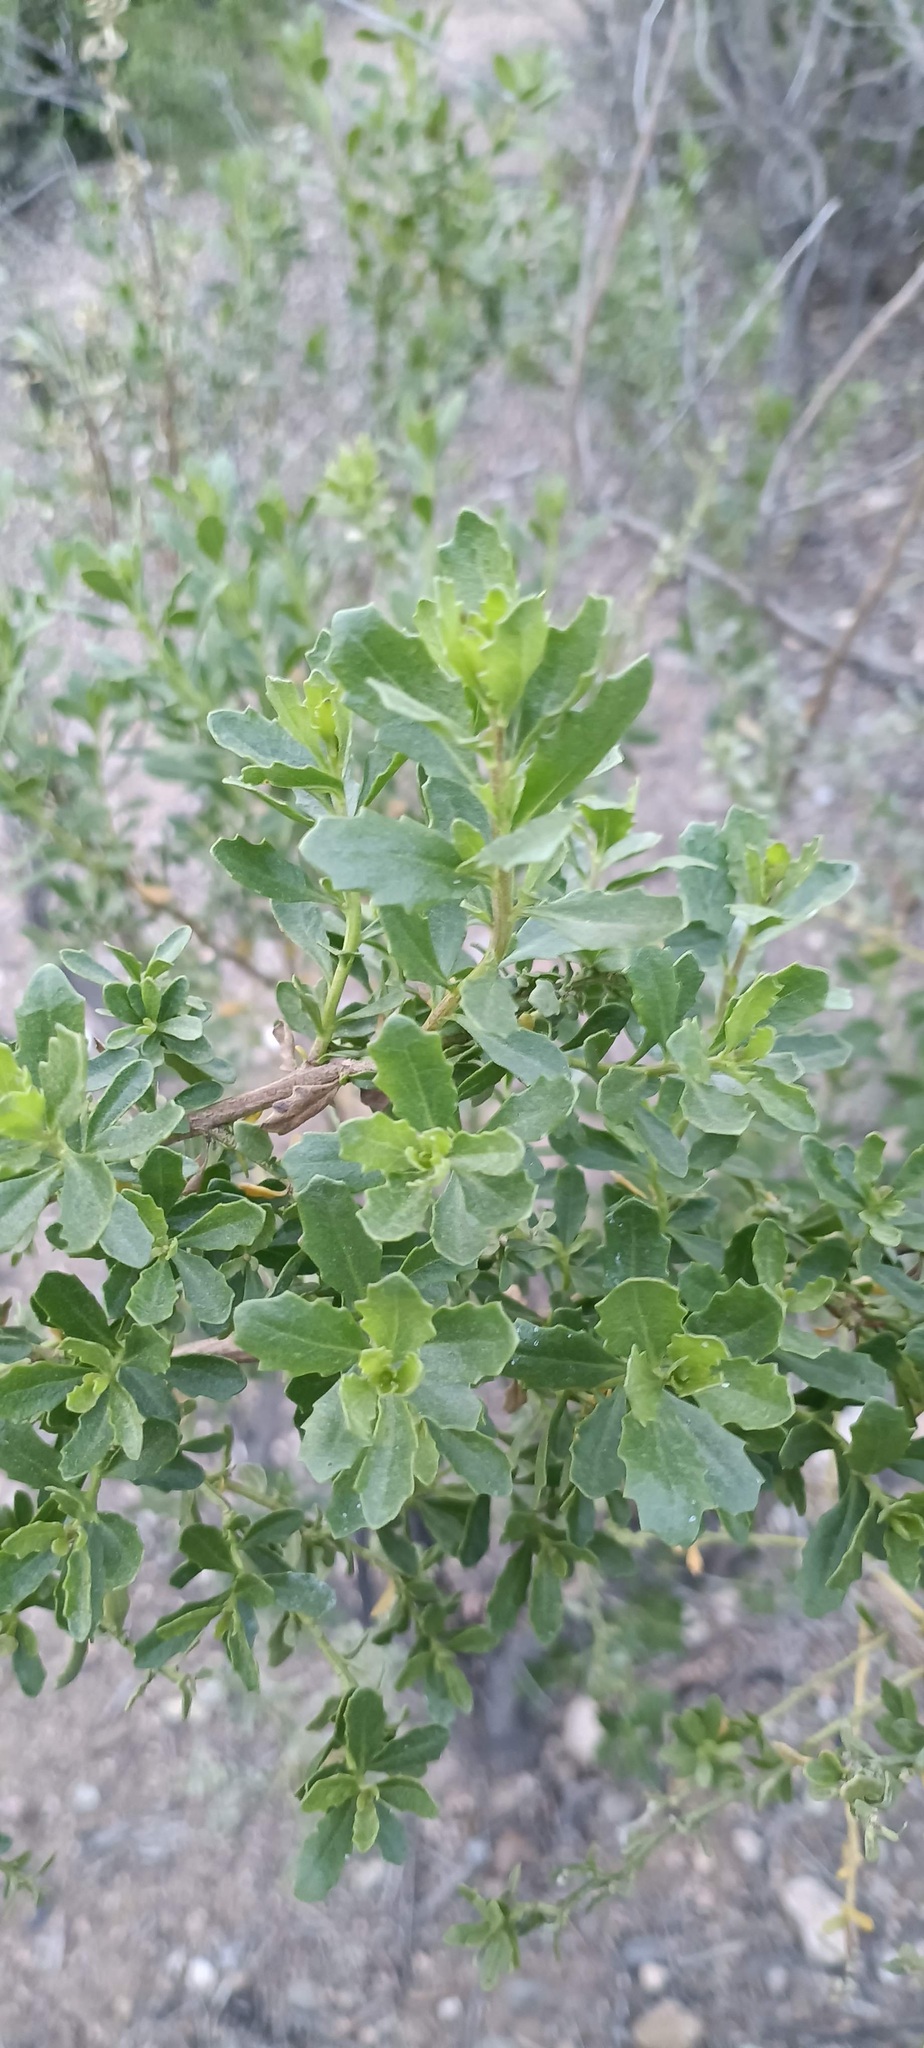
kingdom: Plantae
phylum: Tracheophyta
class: Magnoliopsida
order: Asterales
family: Asteraceae
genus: Baccharis
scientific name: Baccharis pilularis
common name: Coyotebrush
